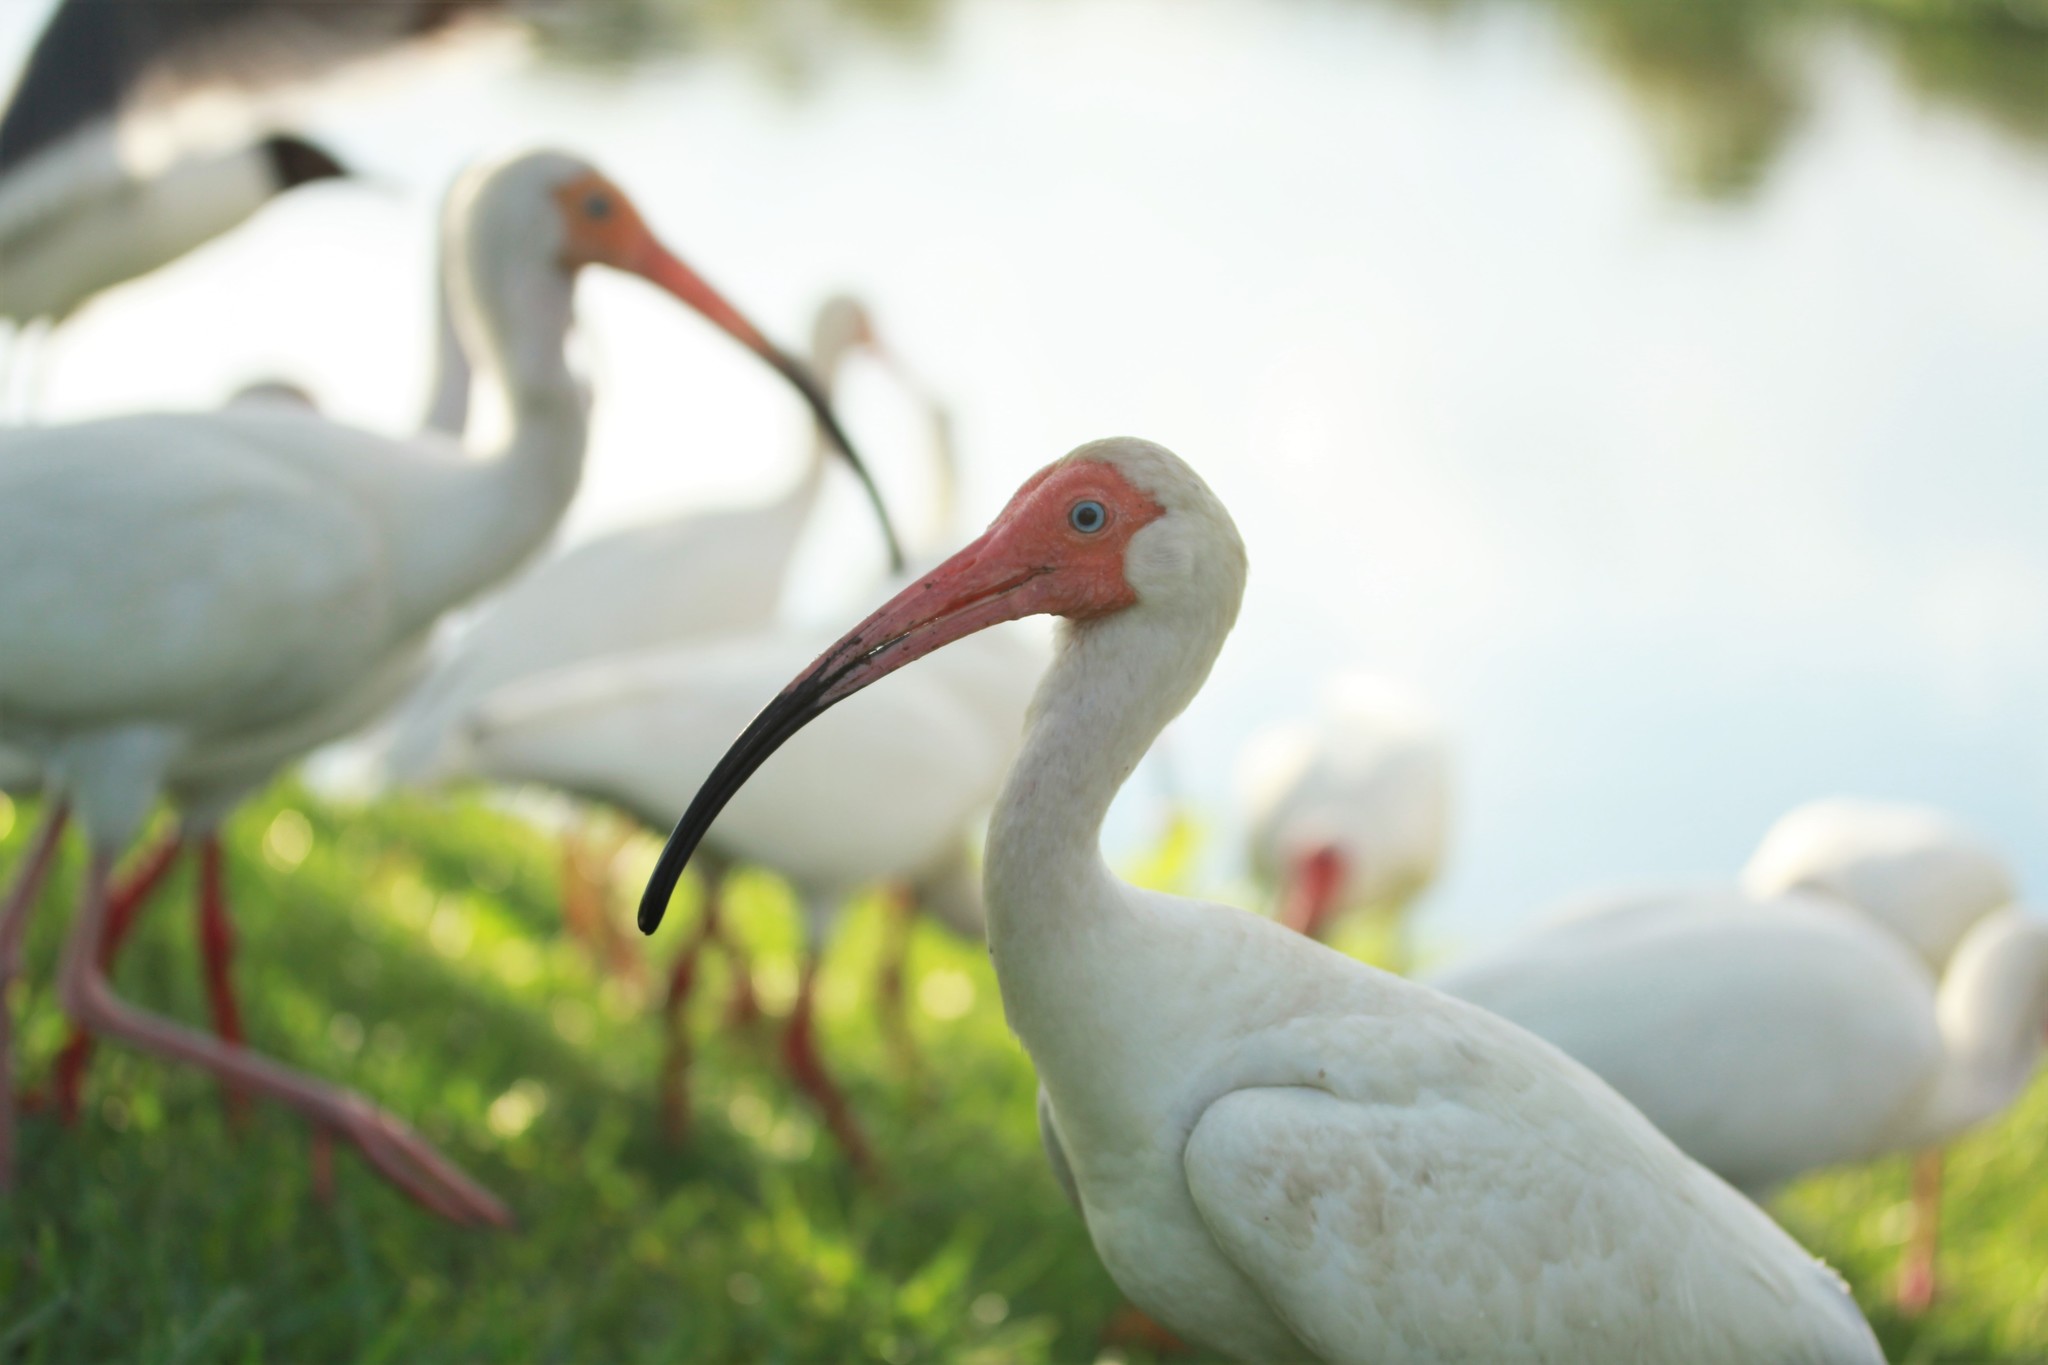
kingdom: Animalia
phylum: Chordata
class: Aves
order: Pelecaniformes
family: Threskiornithidae
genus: Eudocimus
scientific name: Eudocimus albus
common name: White ibis
